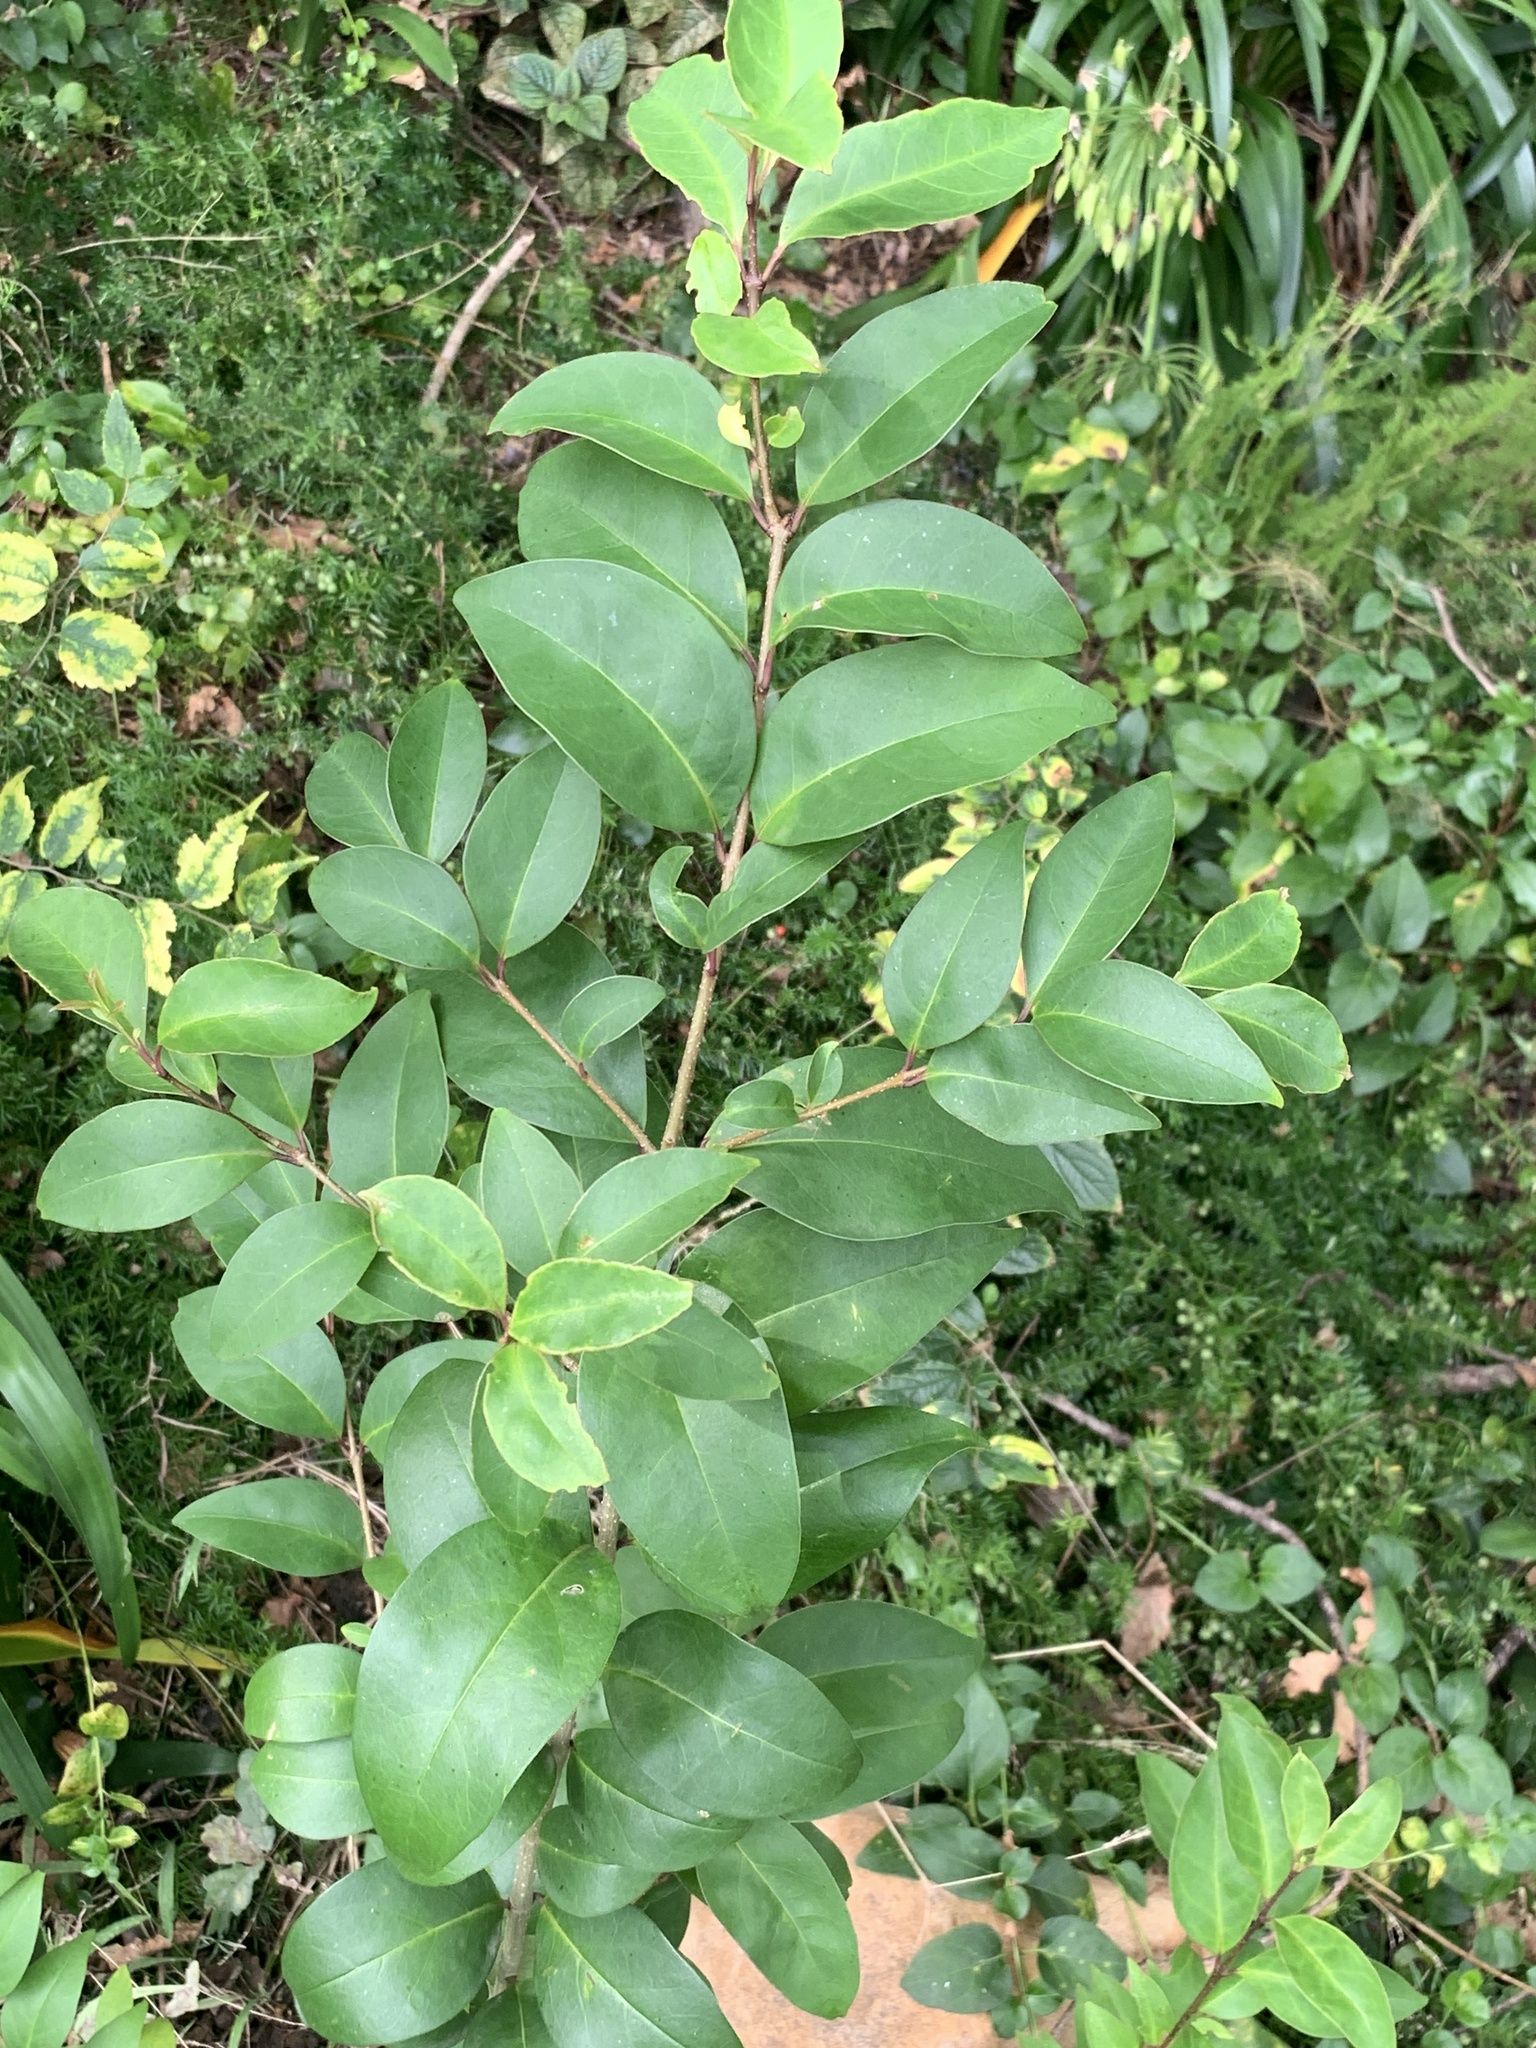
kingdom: Plantae
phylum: Tracheophyta
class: Magnoliopsida
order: Lamiales
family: Oleaceae
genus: Ligustrum
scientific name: Ligustrum lucidum
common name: Glossy privet
